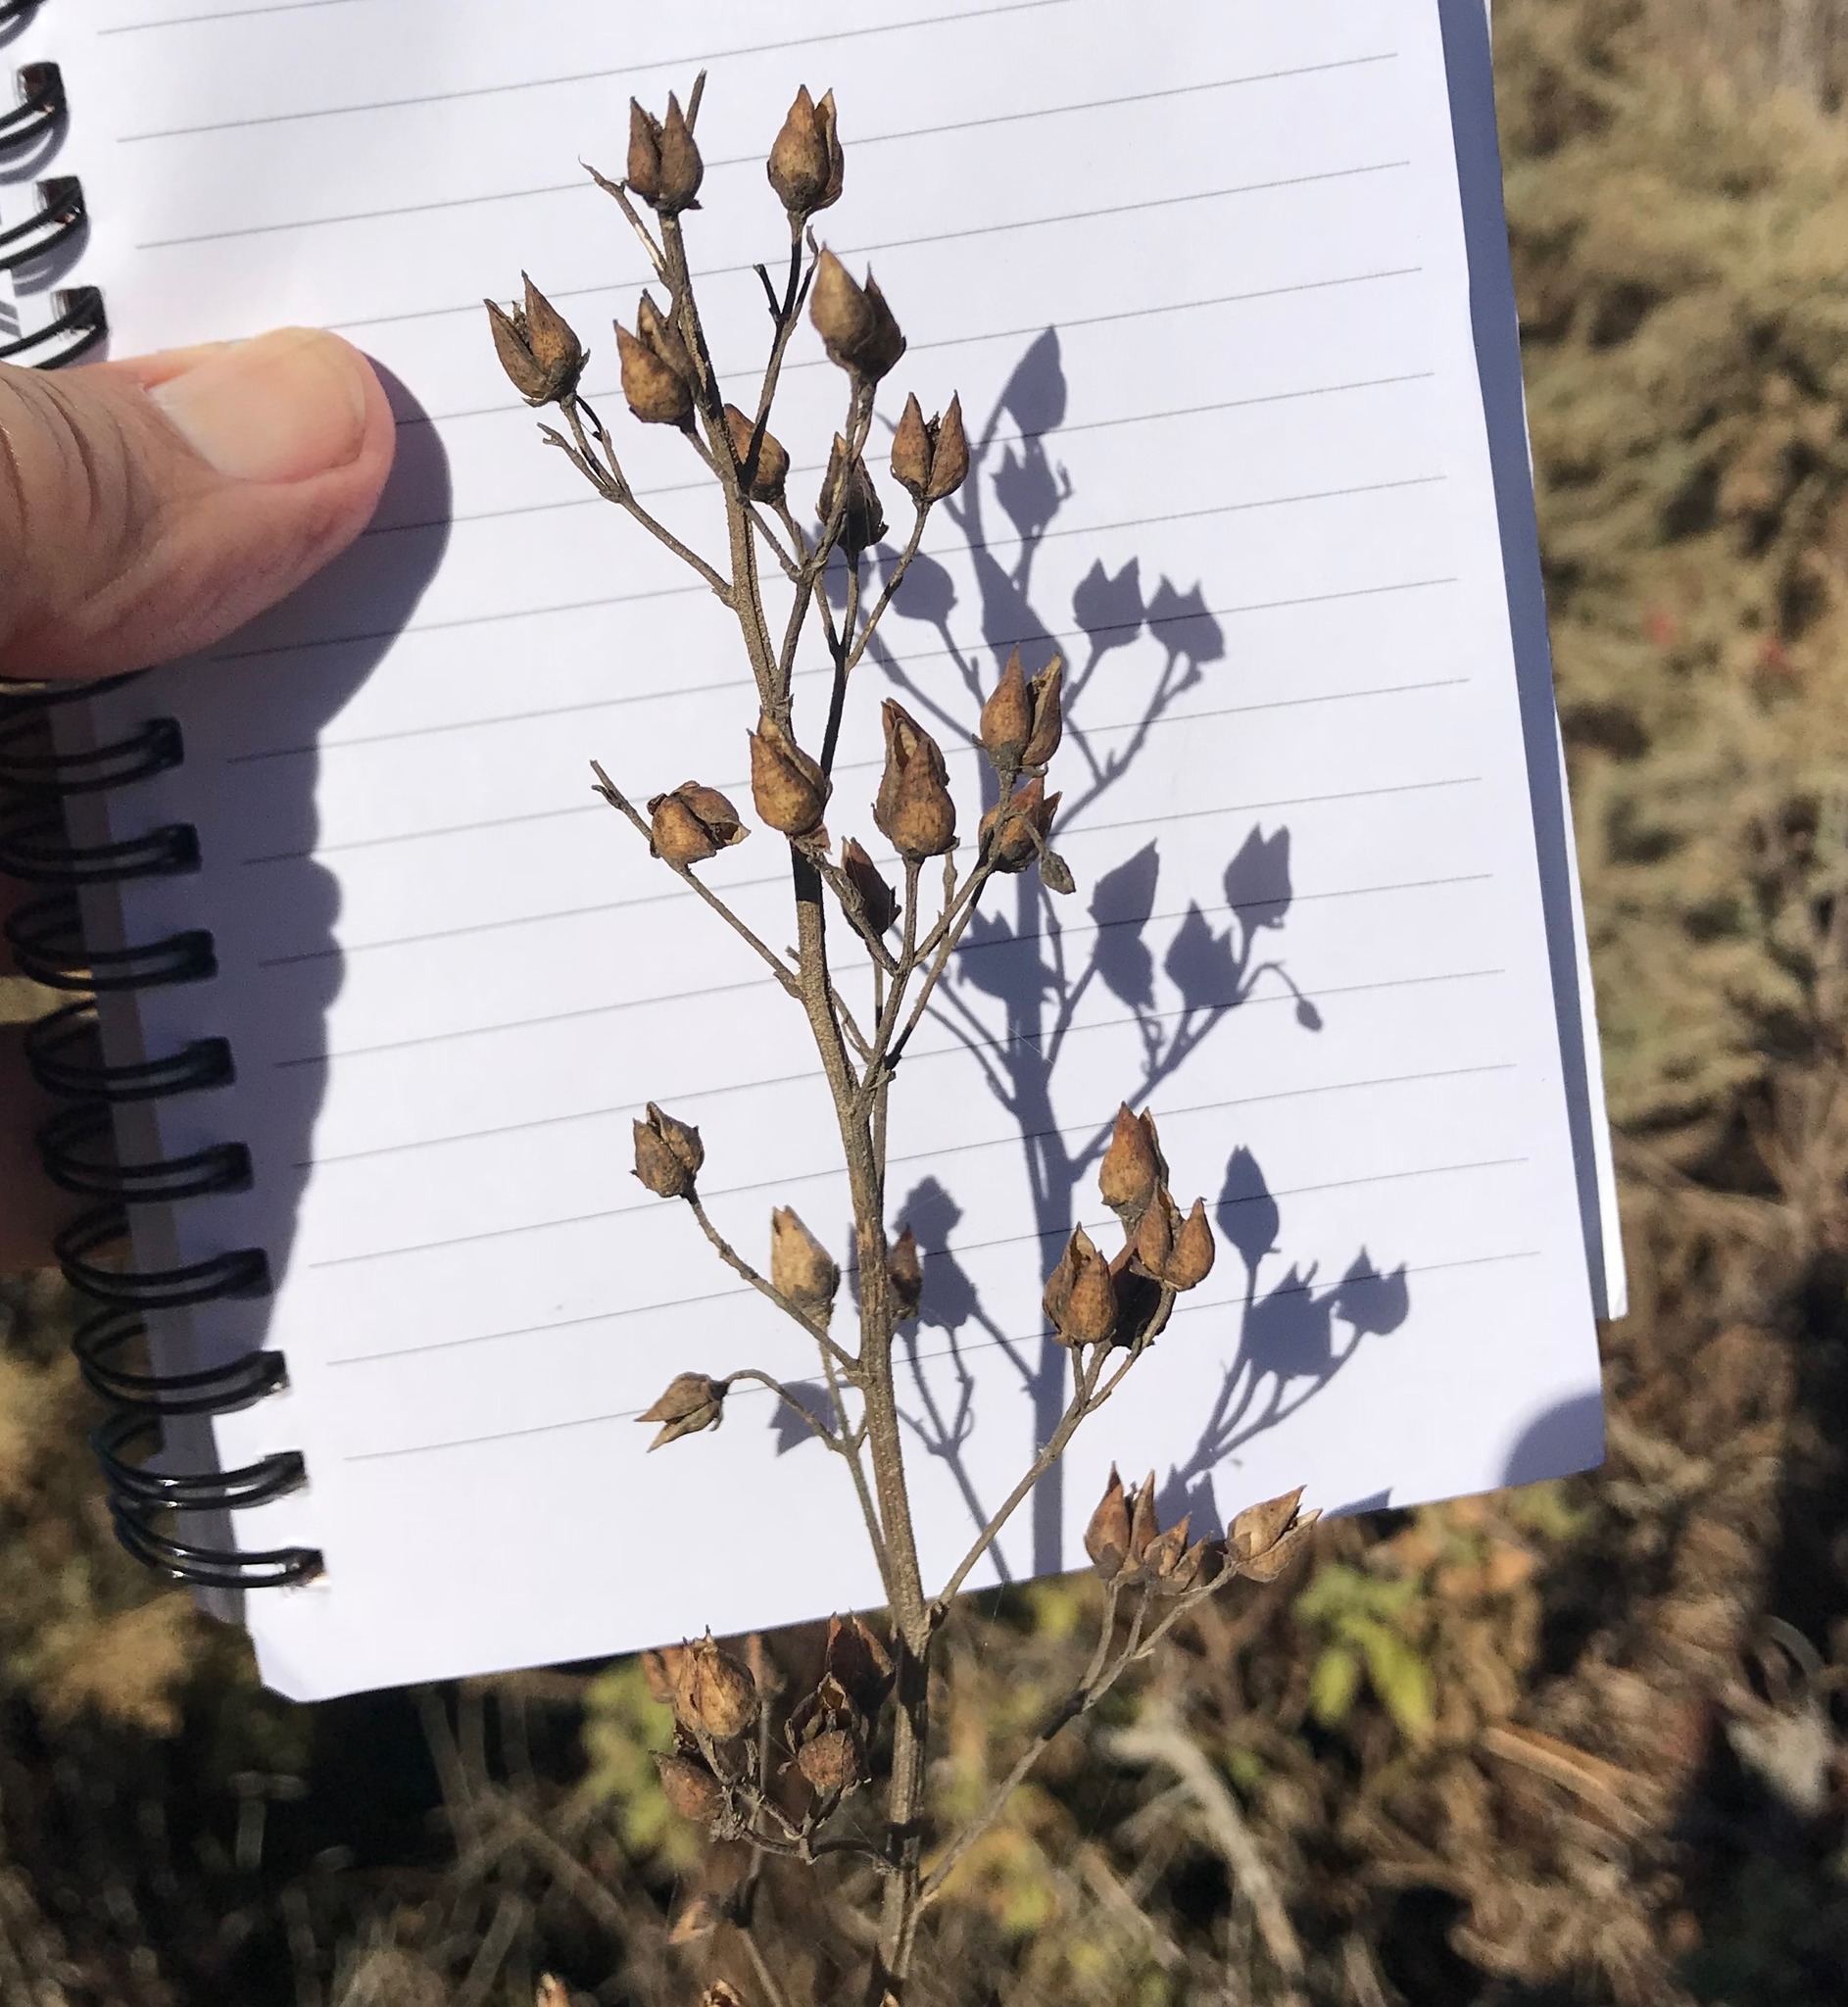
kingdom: Plantae
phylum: Tracheophyta
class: Magnoliopsida
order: Lamiales
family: Scrophulariaceae
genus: Scrophularia
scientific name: Scrophularia californica
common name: California figwort
